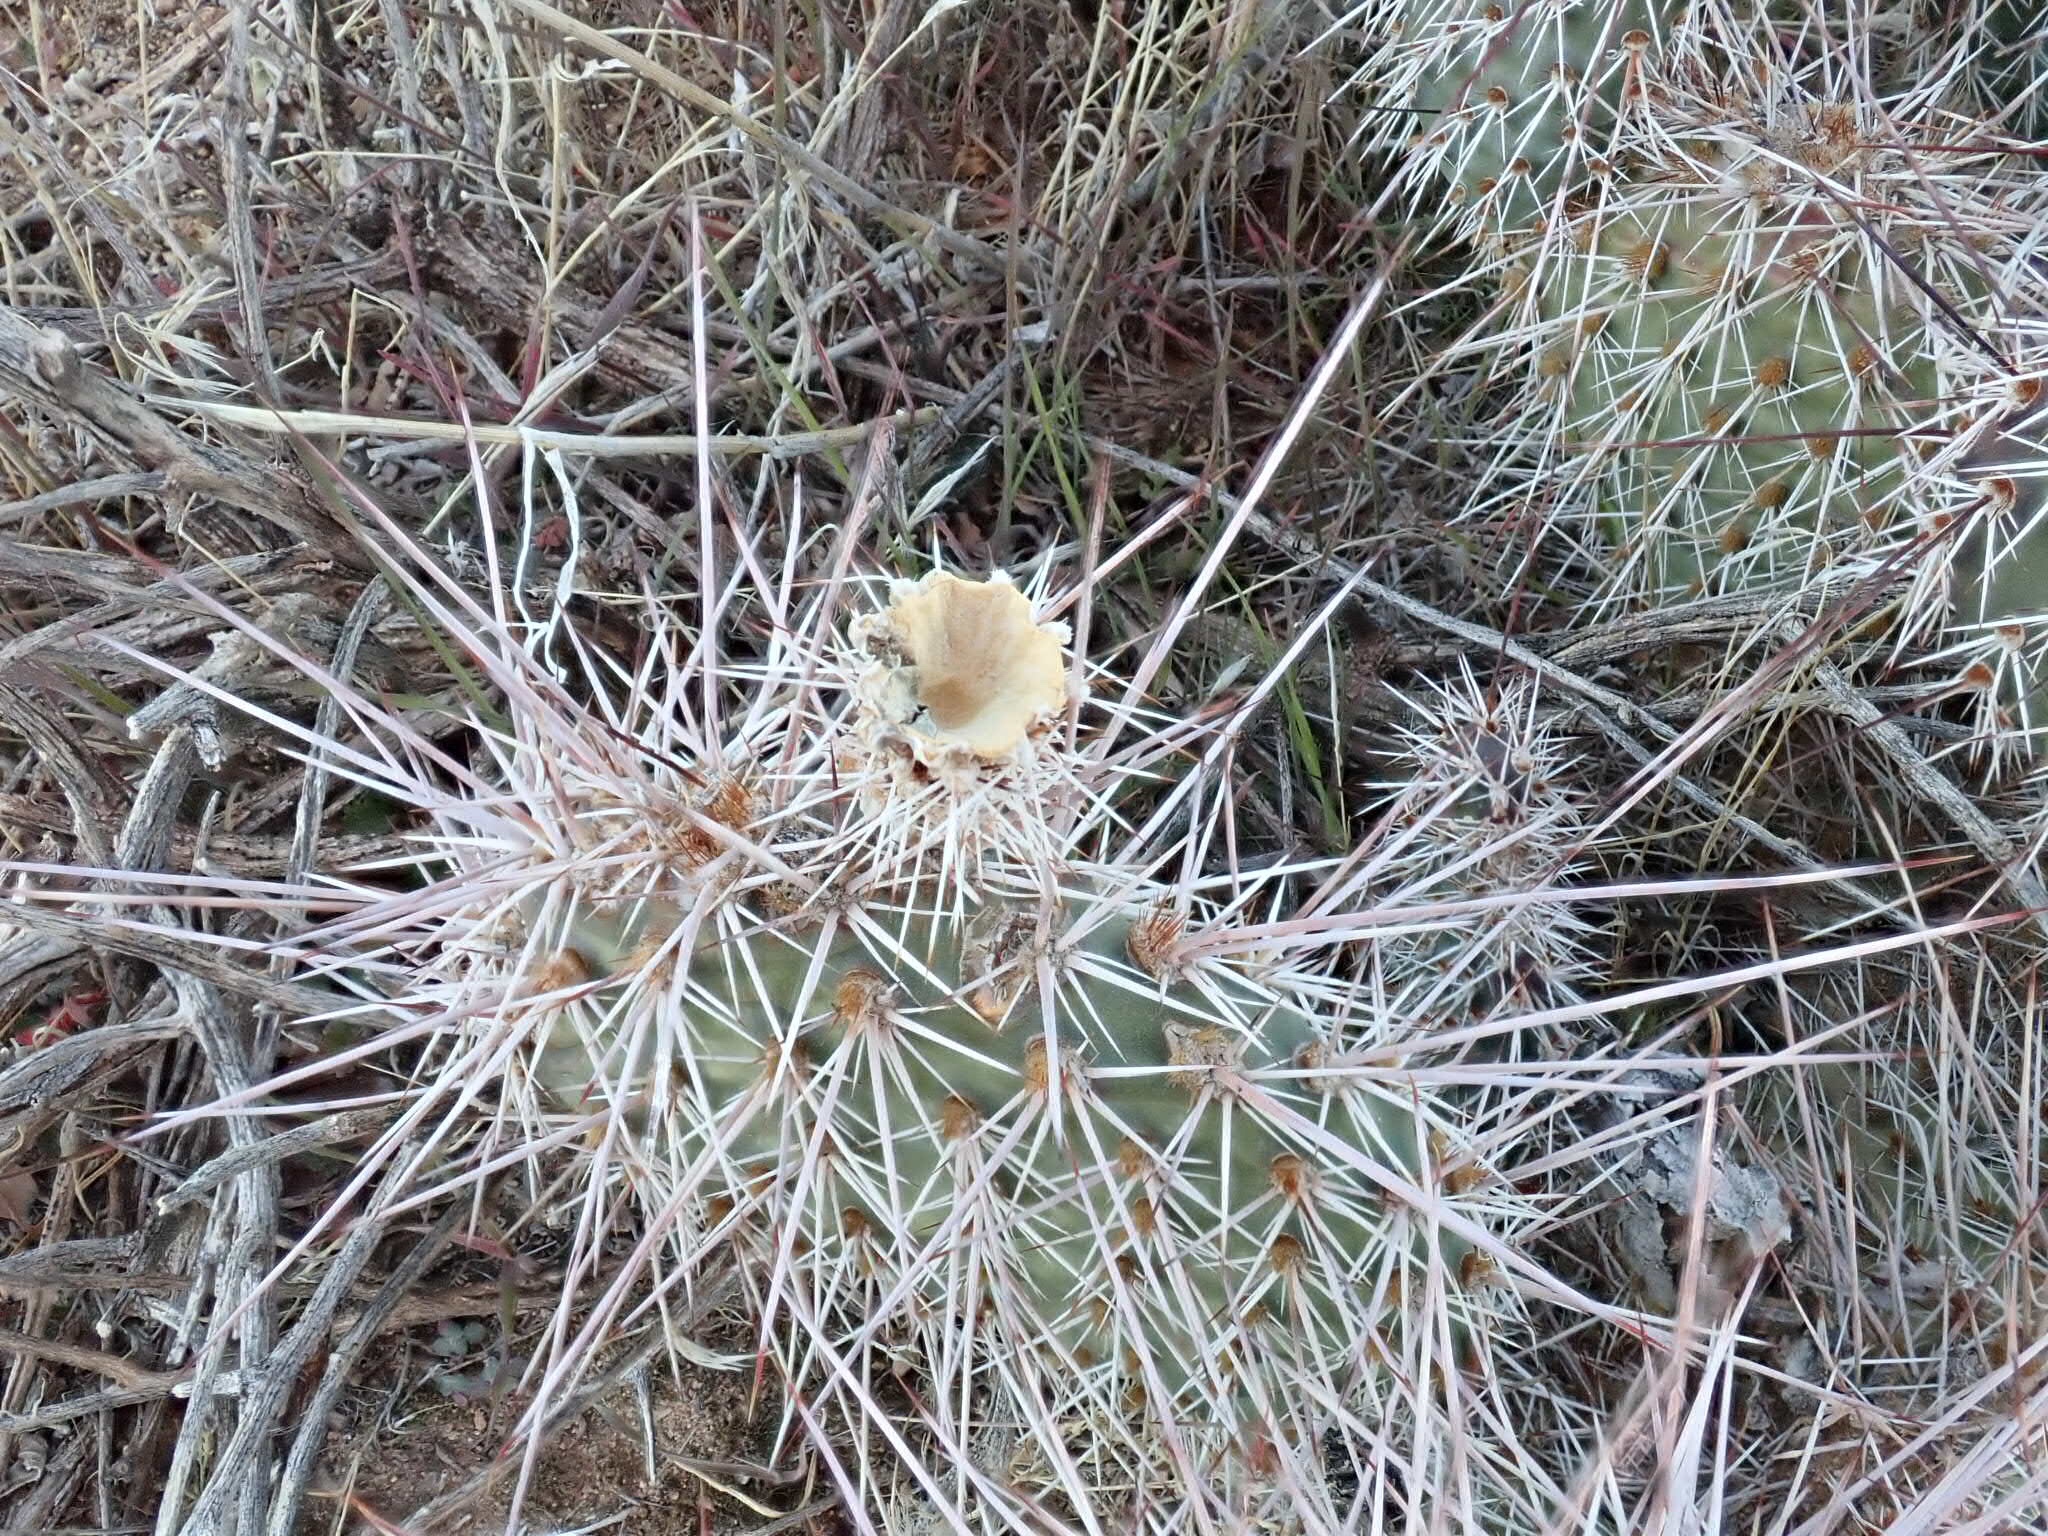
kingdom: Plantae
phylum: Tracheophyta
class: Magnoliopsida
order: Caryophyllales
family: Cactaceae
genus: Opuntia
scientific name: Opuntia polyacantha
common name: Plains prickly-pear
